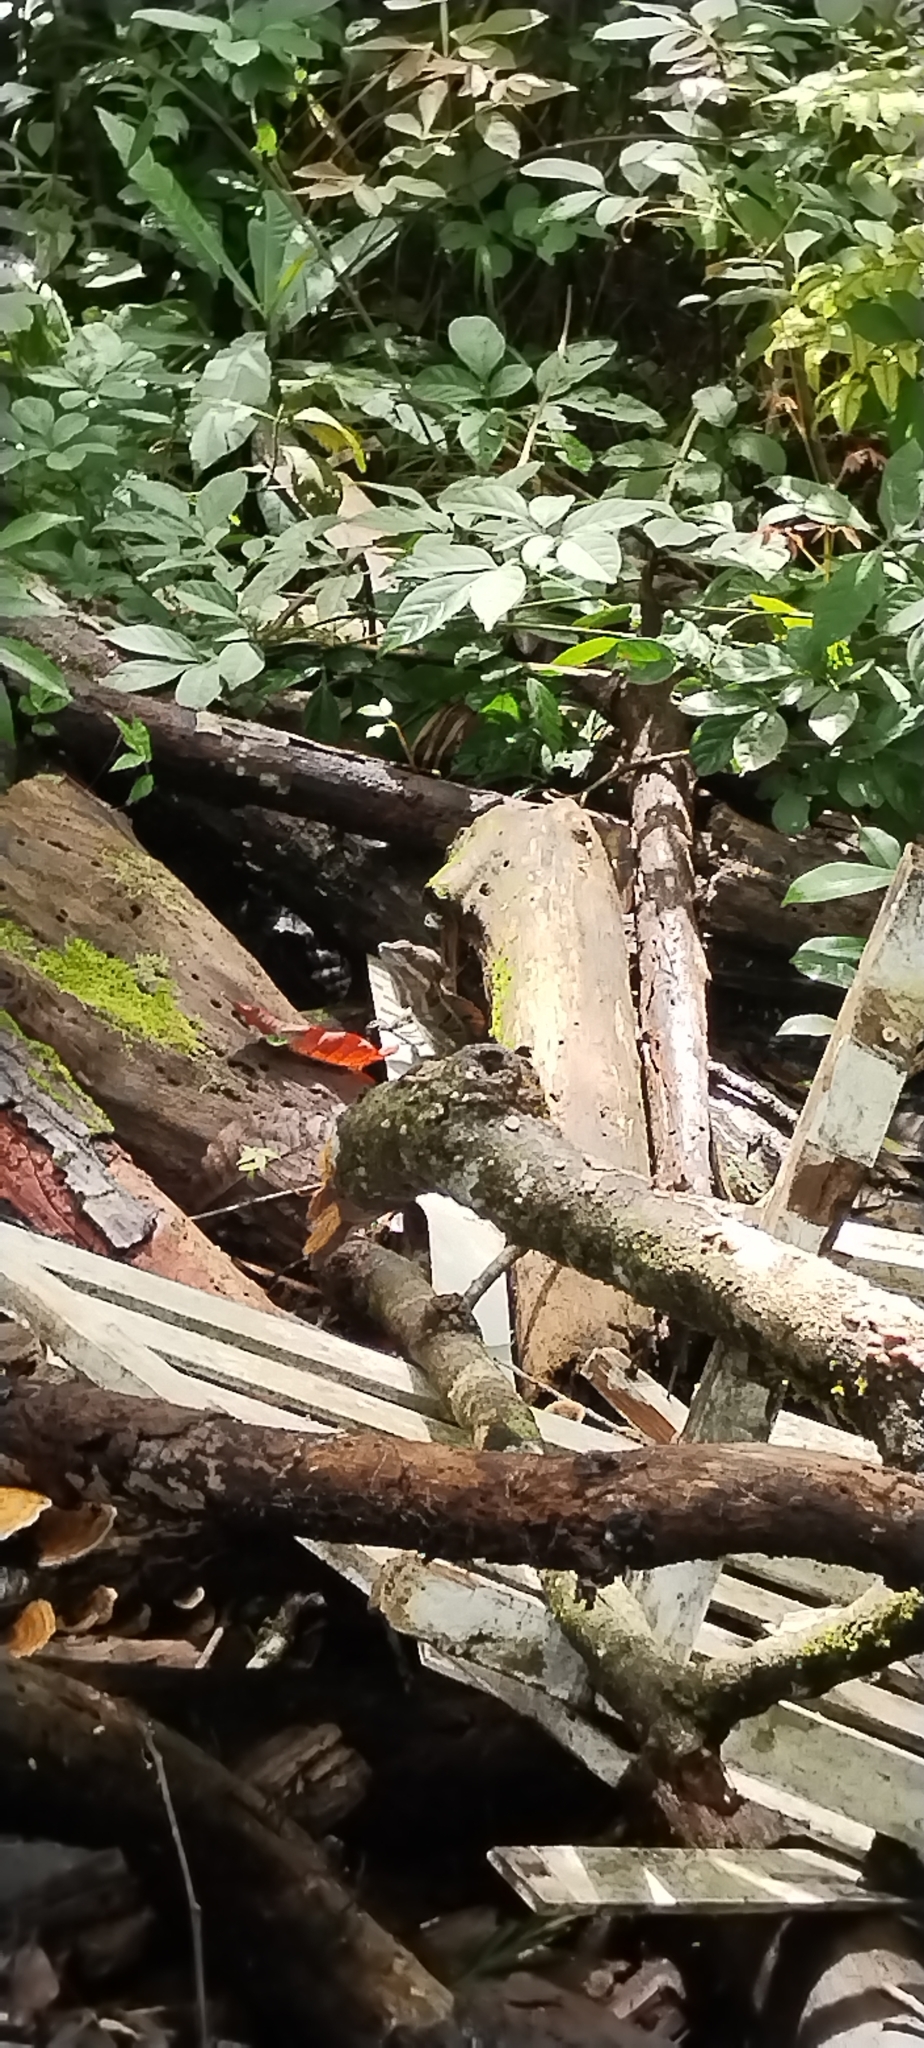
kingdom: Animalia
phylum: Chordata
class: Squamata
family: Corytophanidae
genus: Basiliscus
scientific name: Basiliscus basiliscus
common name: Common basilisk
